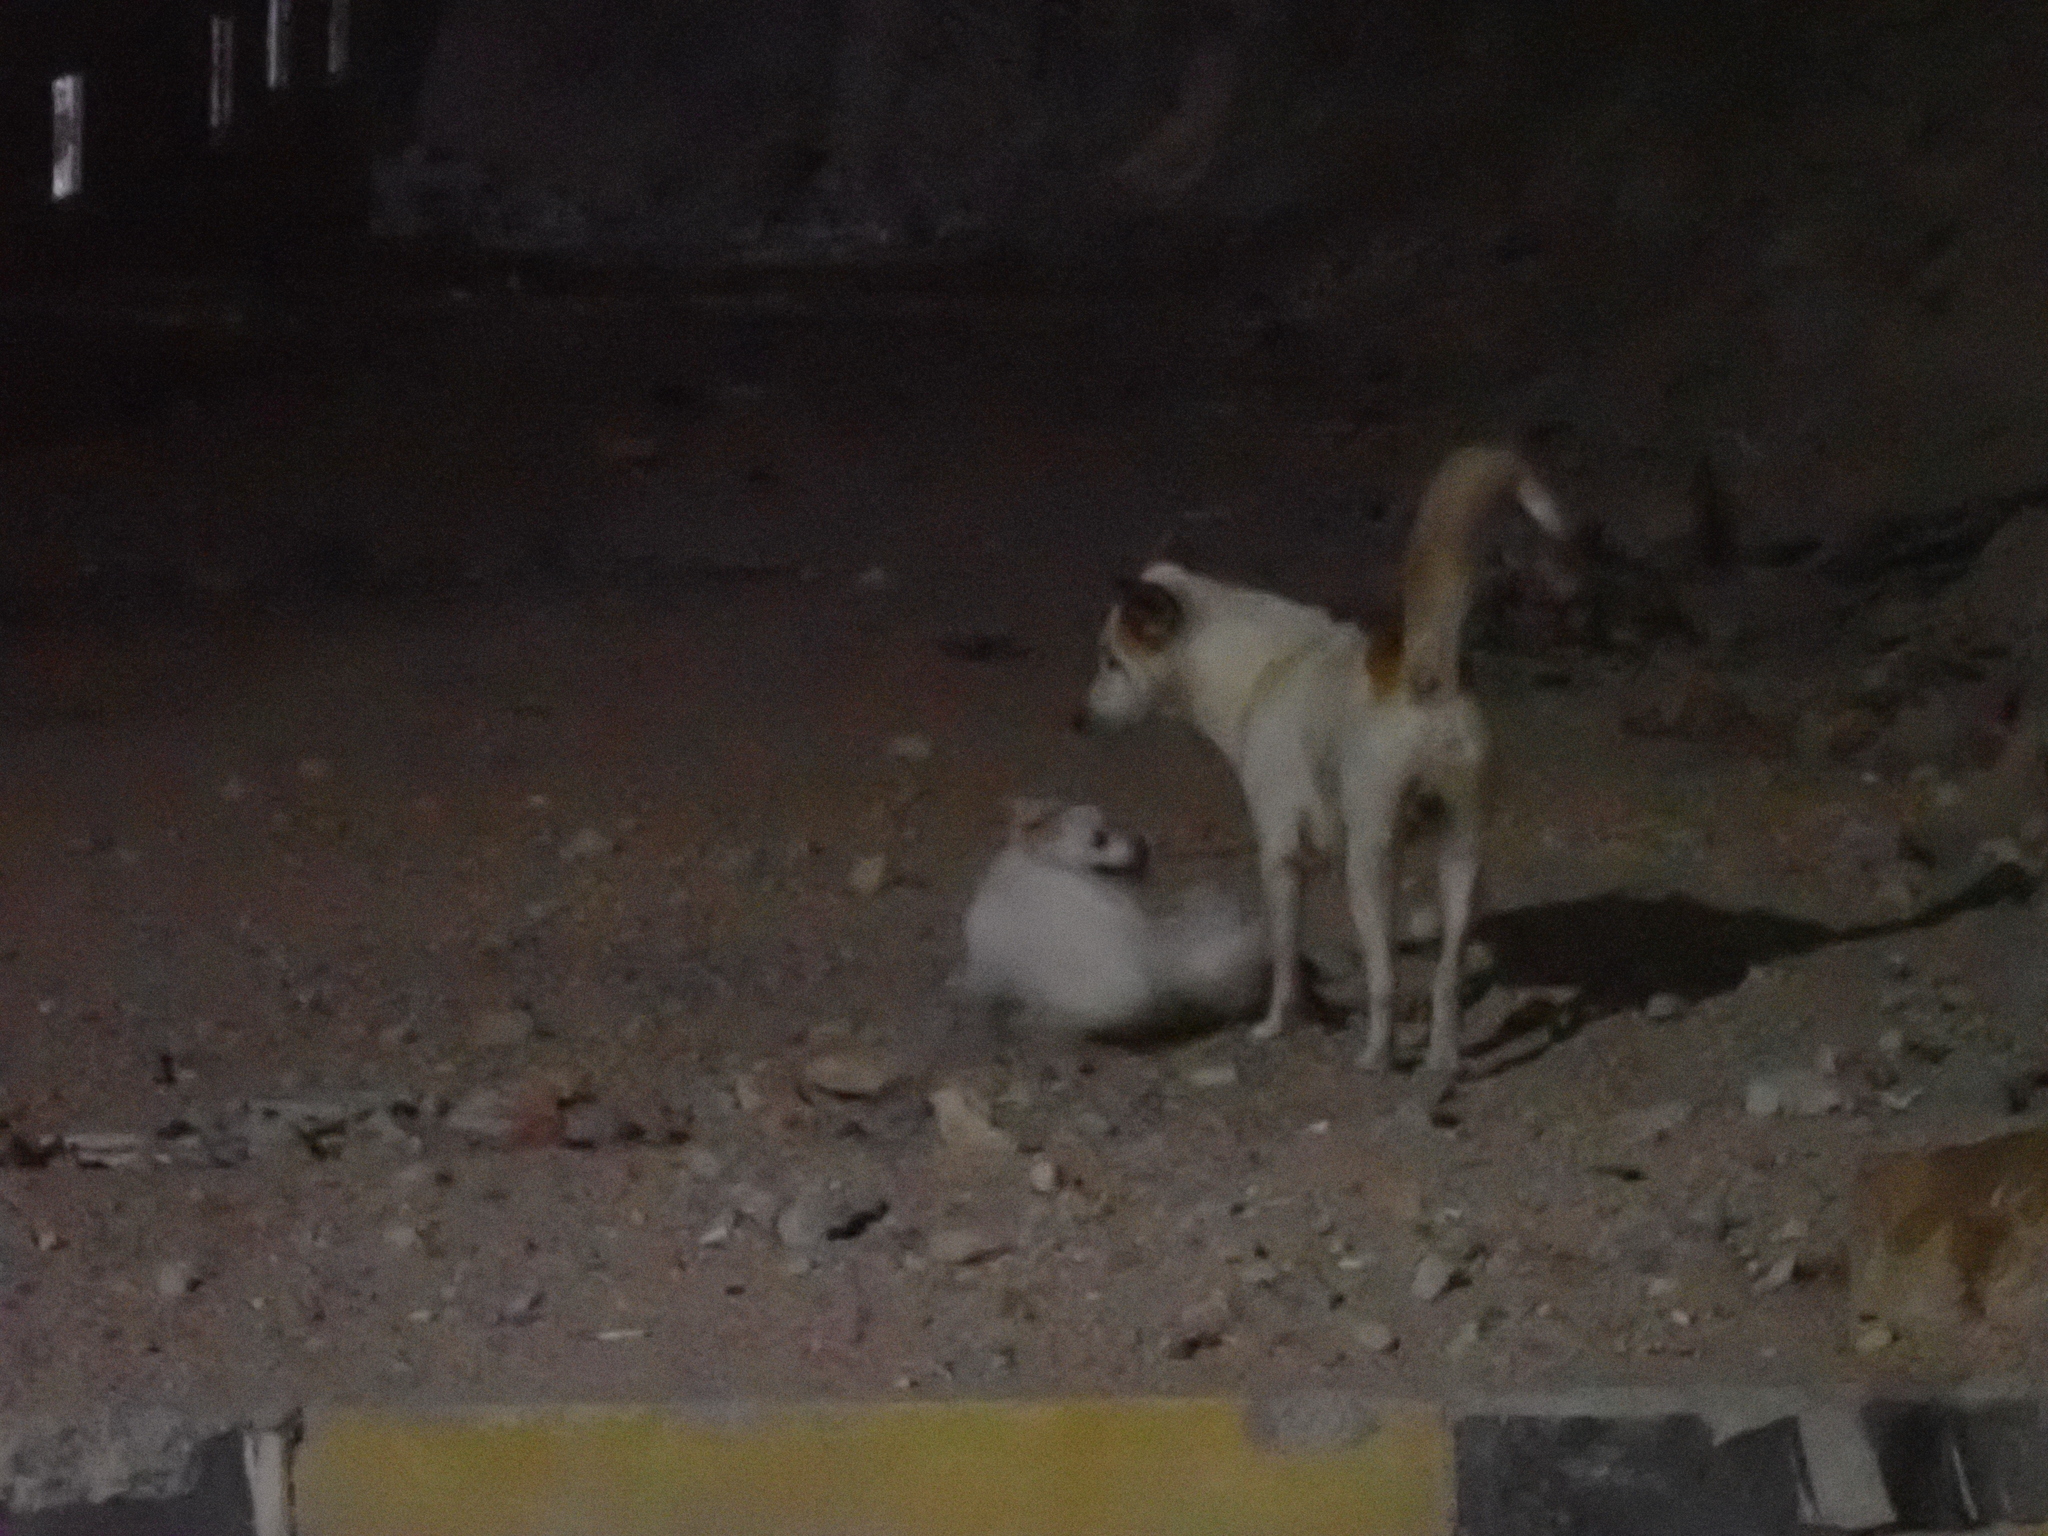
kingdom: Animalia
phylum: Chordata
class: Mammalia
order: Carnivora
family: Canidae
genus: Canis
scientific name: Canis lupus
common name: Gray wolf
